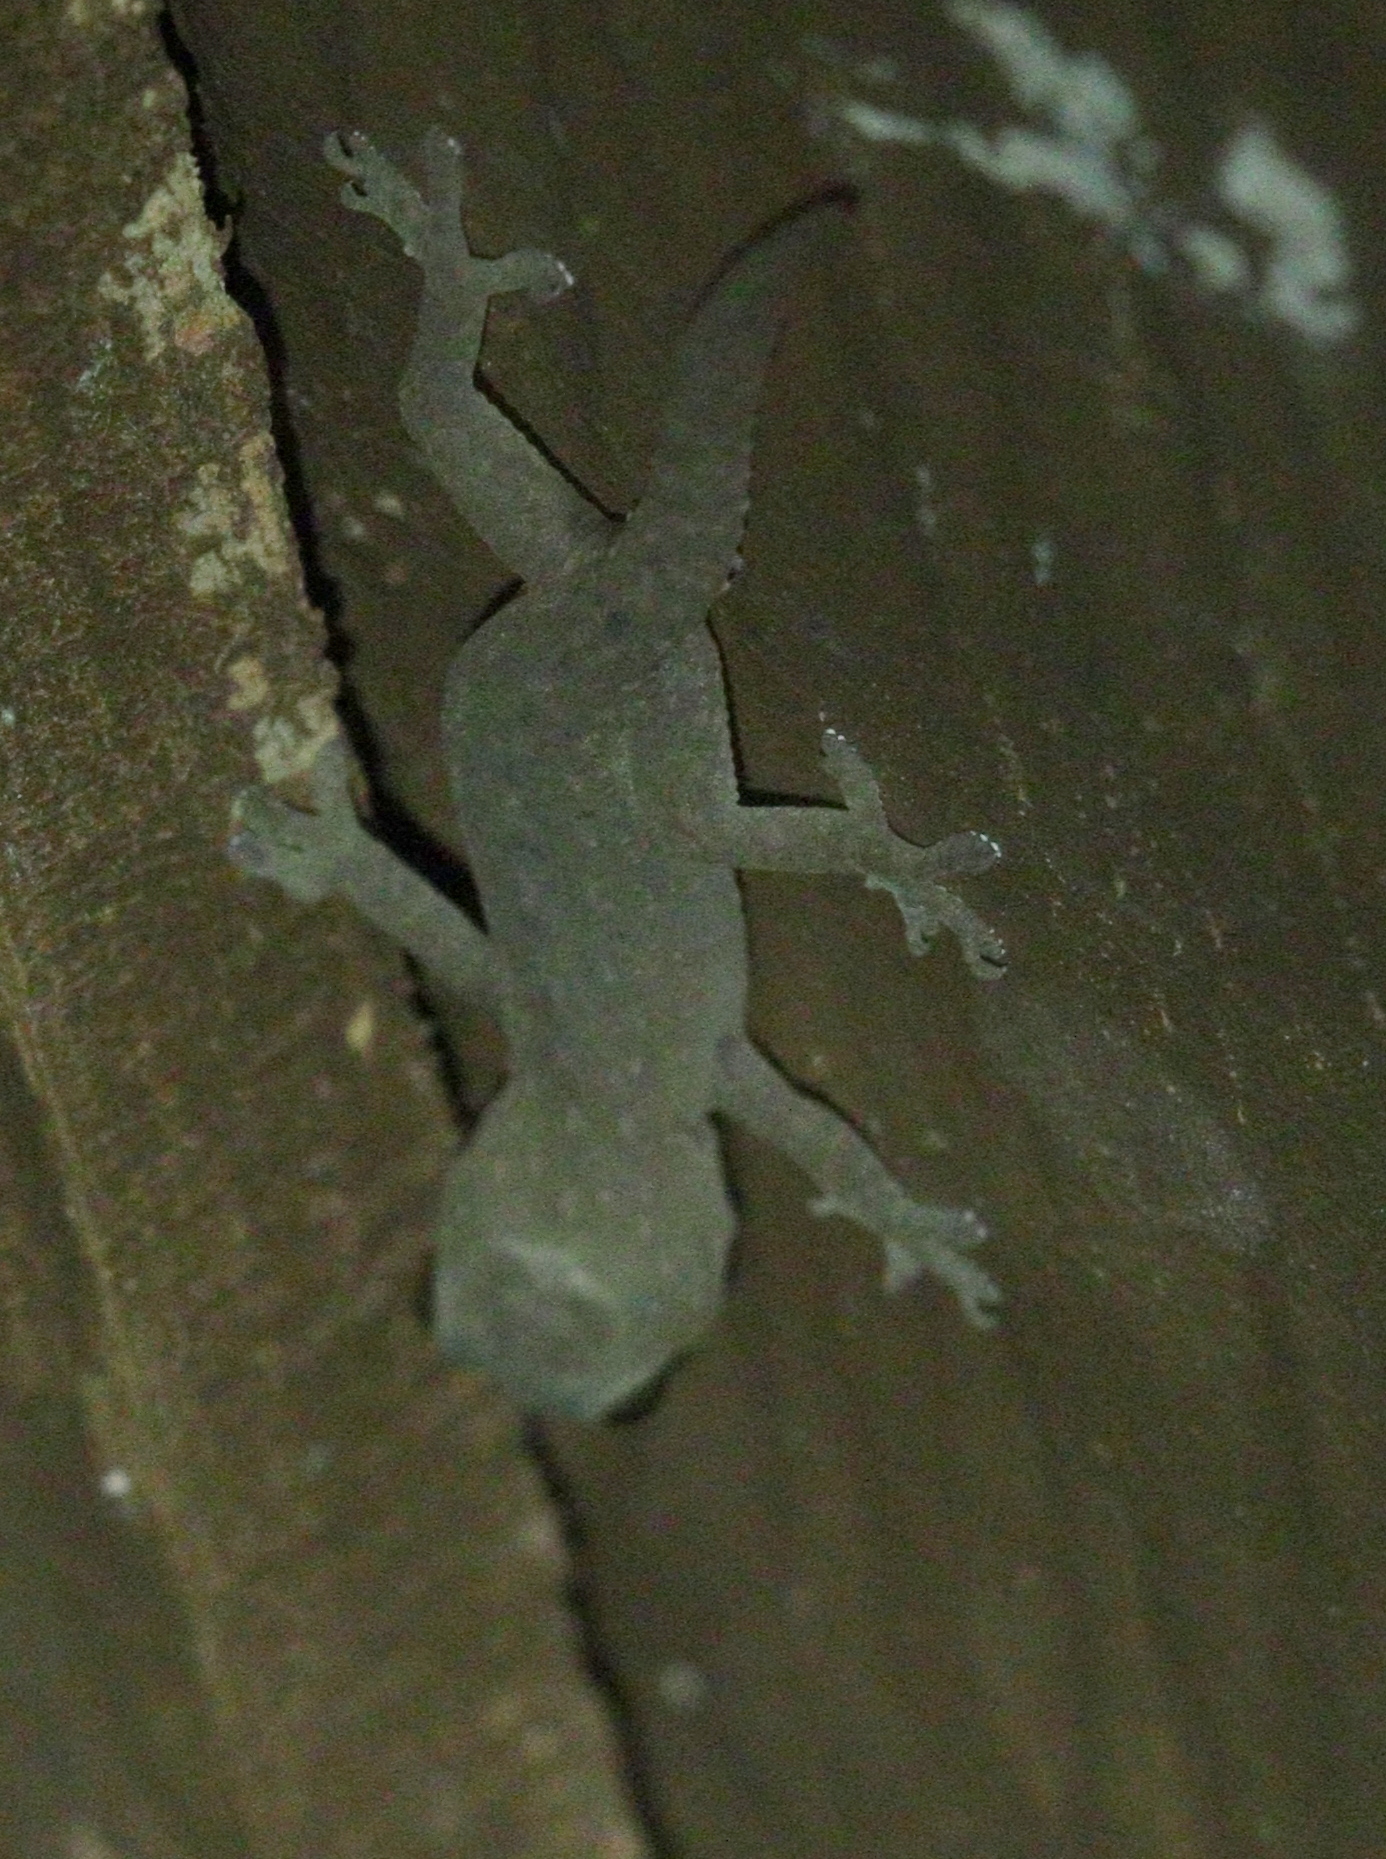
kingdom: Animalia
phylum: Chordata
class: Squamata
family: Gekkonidae
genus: Hemidactylus
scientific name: Hemidactylus frenatus
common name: Common house gecko
